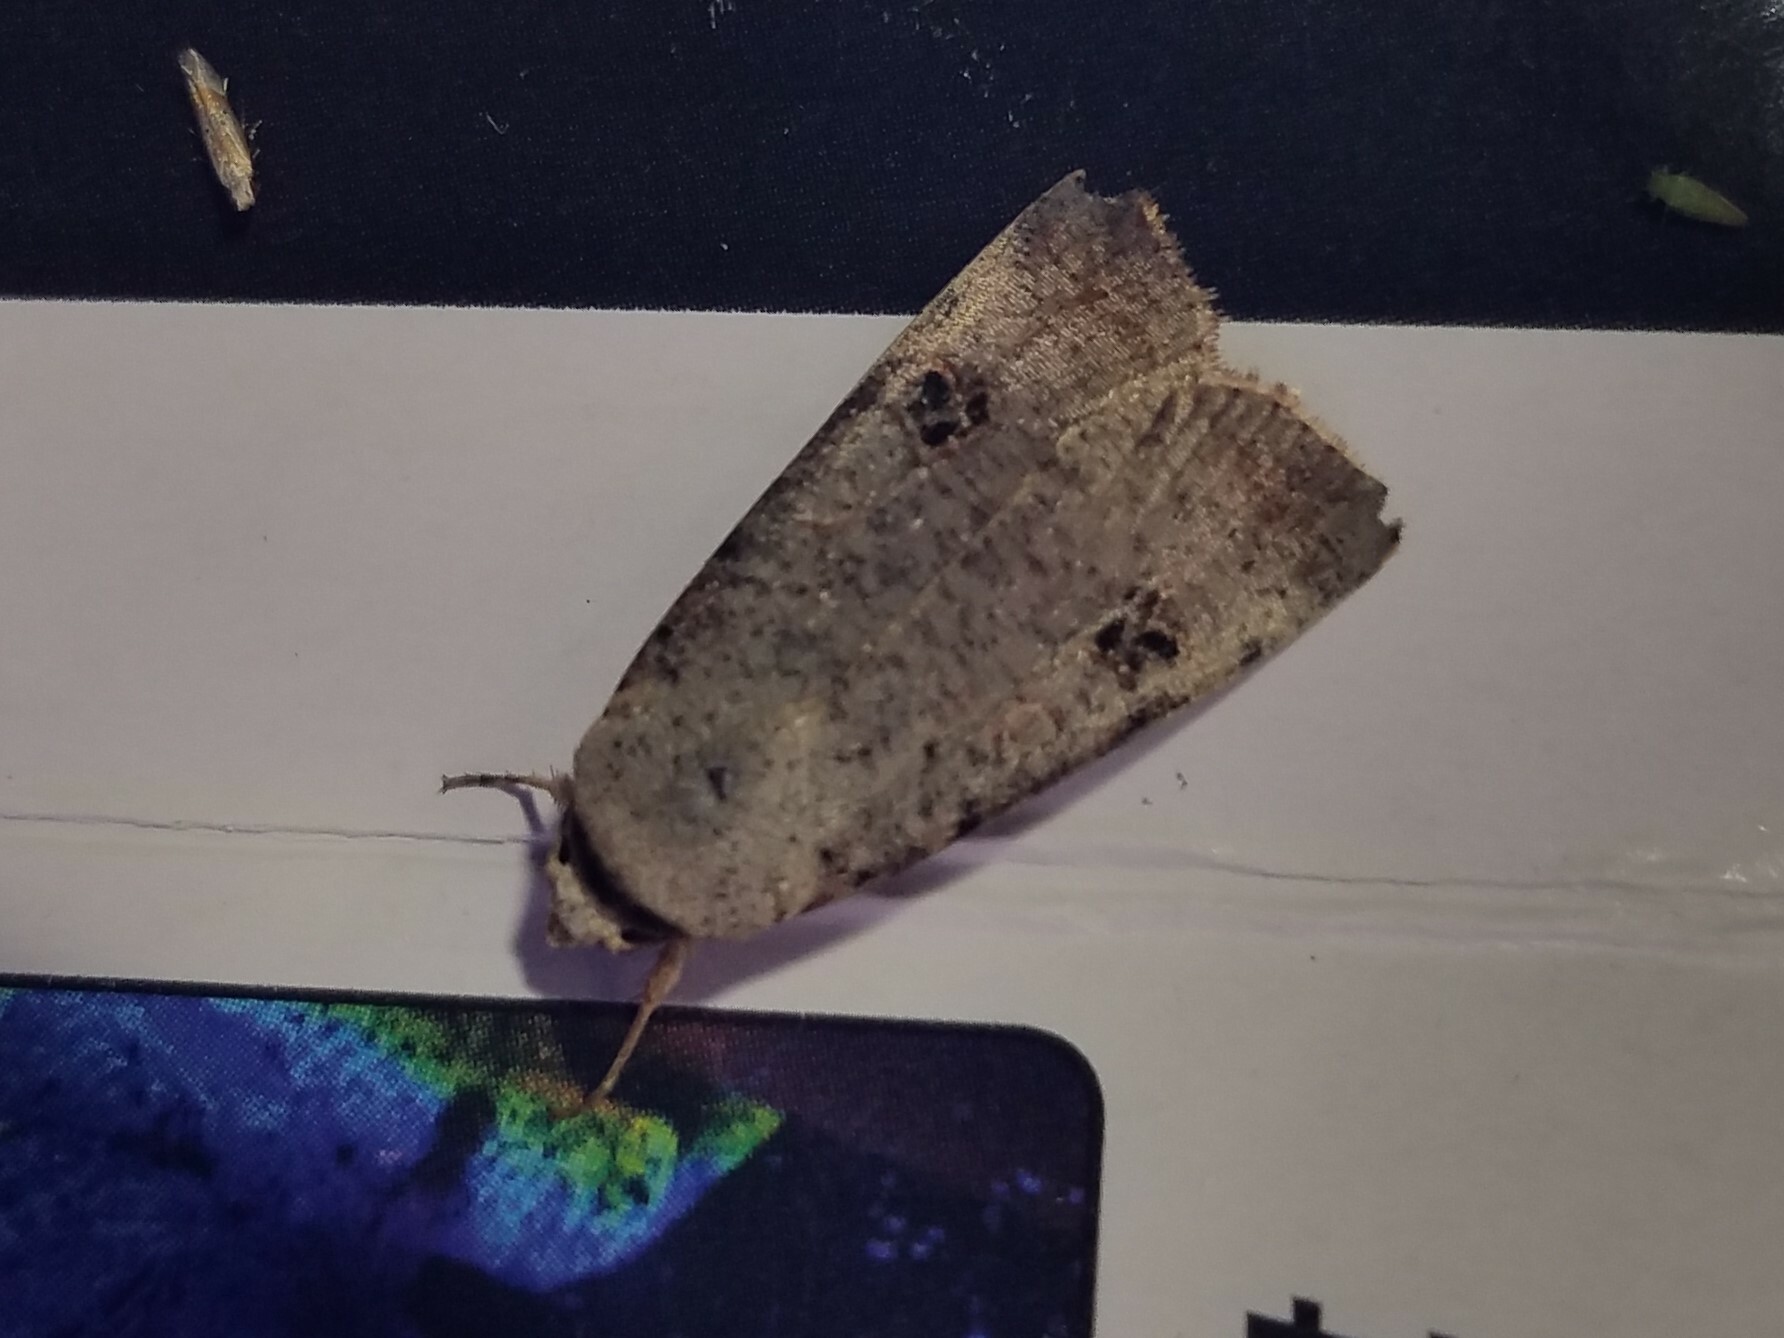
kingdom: Animalia
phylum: Arthropoda
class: Insecta
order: Lepidoptera
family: Noctuidae
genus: Anicla
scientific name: Anicla infecta
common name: Green cutworm
